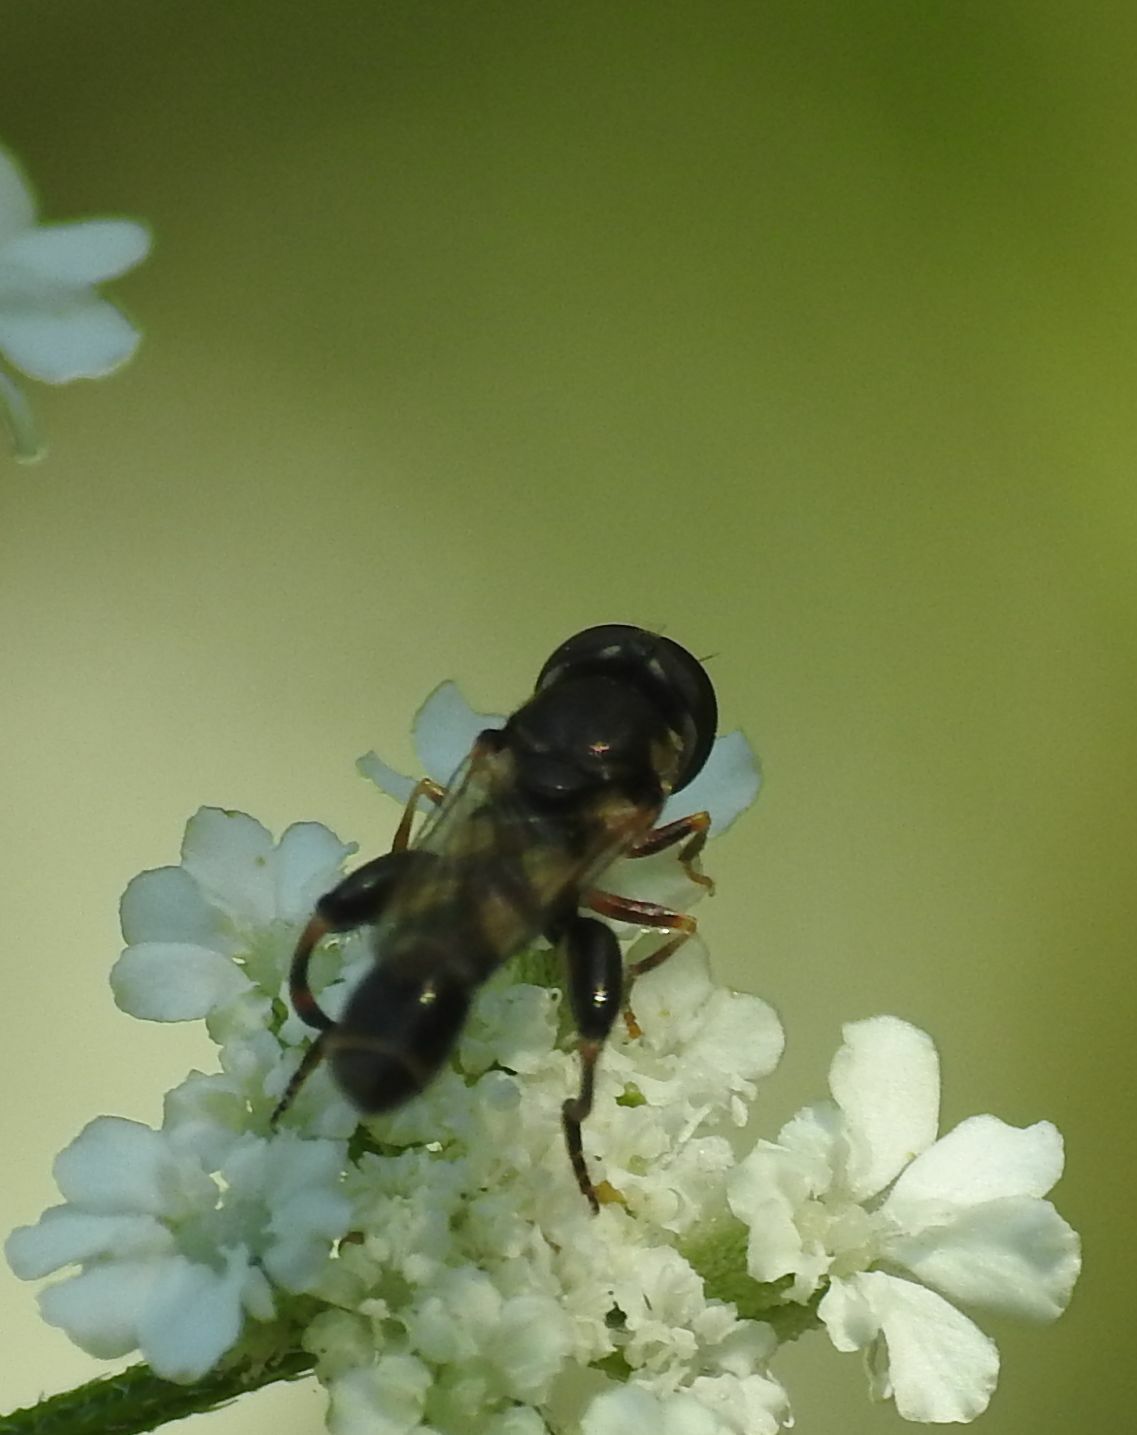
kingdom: Animalia
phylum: Arthropoda
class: Insecta
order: Diptera
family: Syrphidae
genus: Syritta
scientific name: Syritta pipiens
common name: Hover fly
